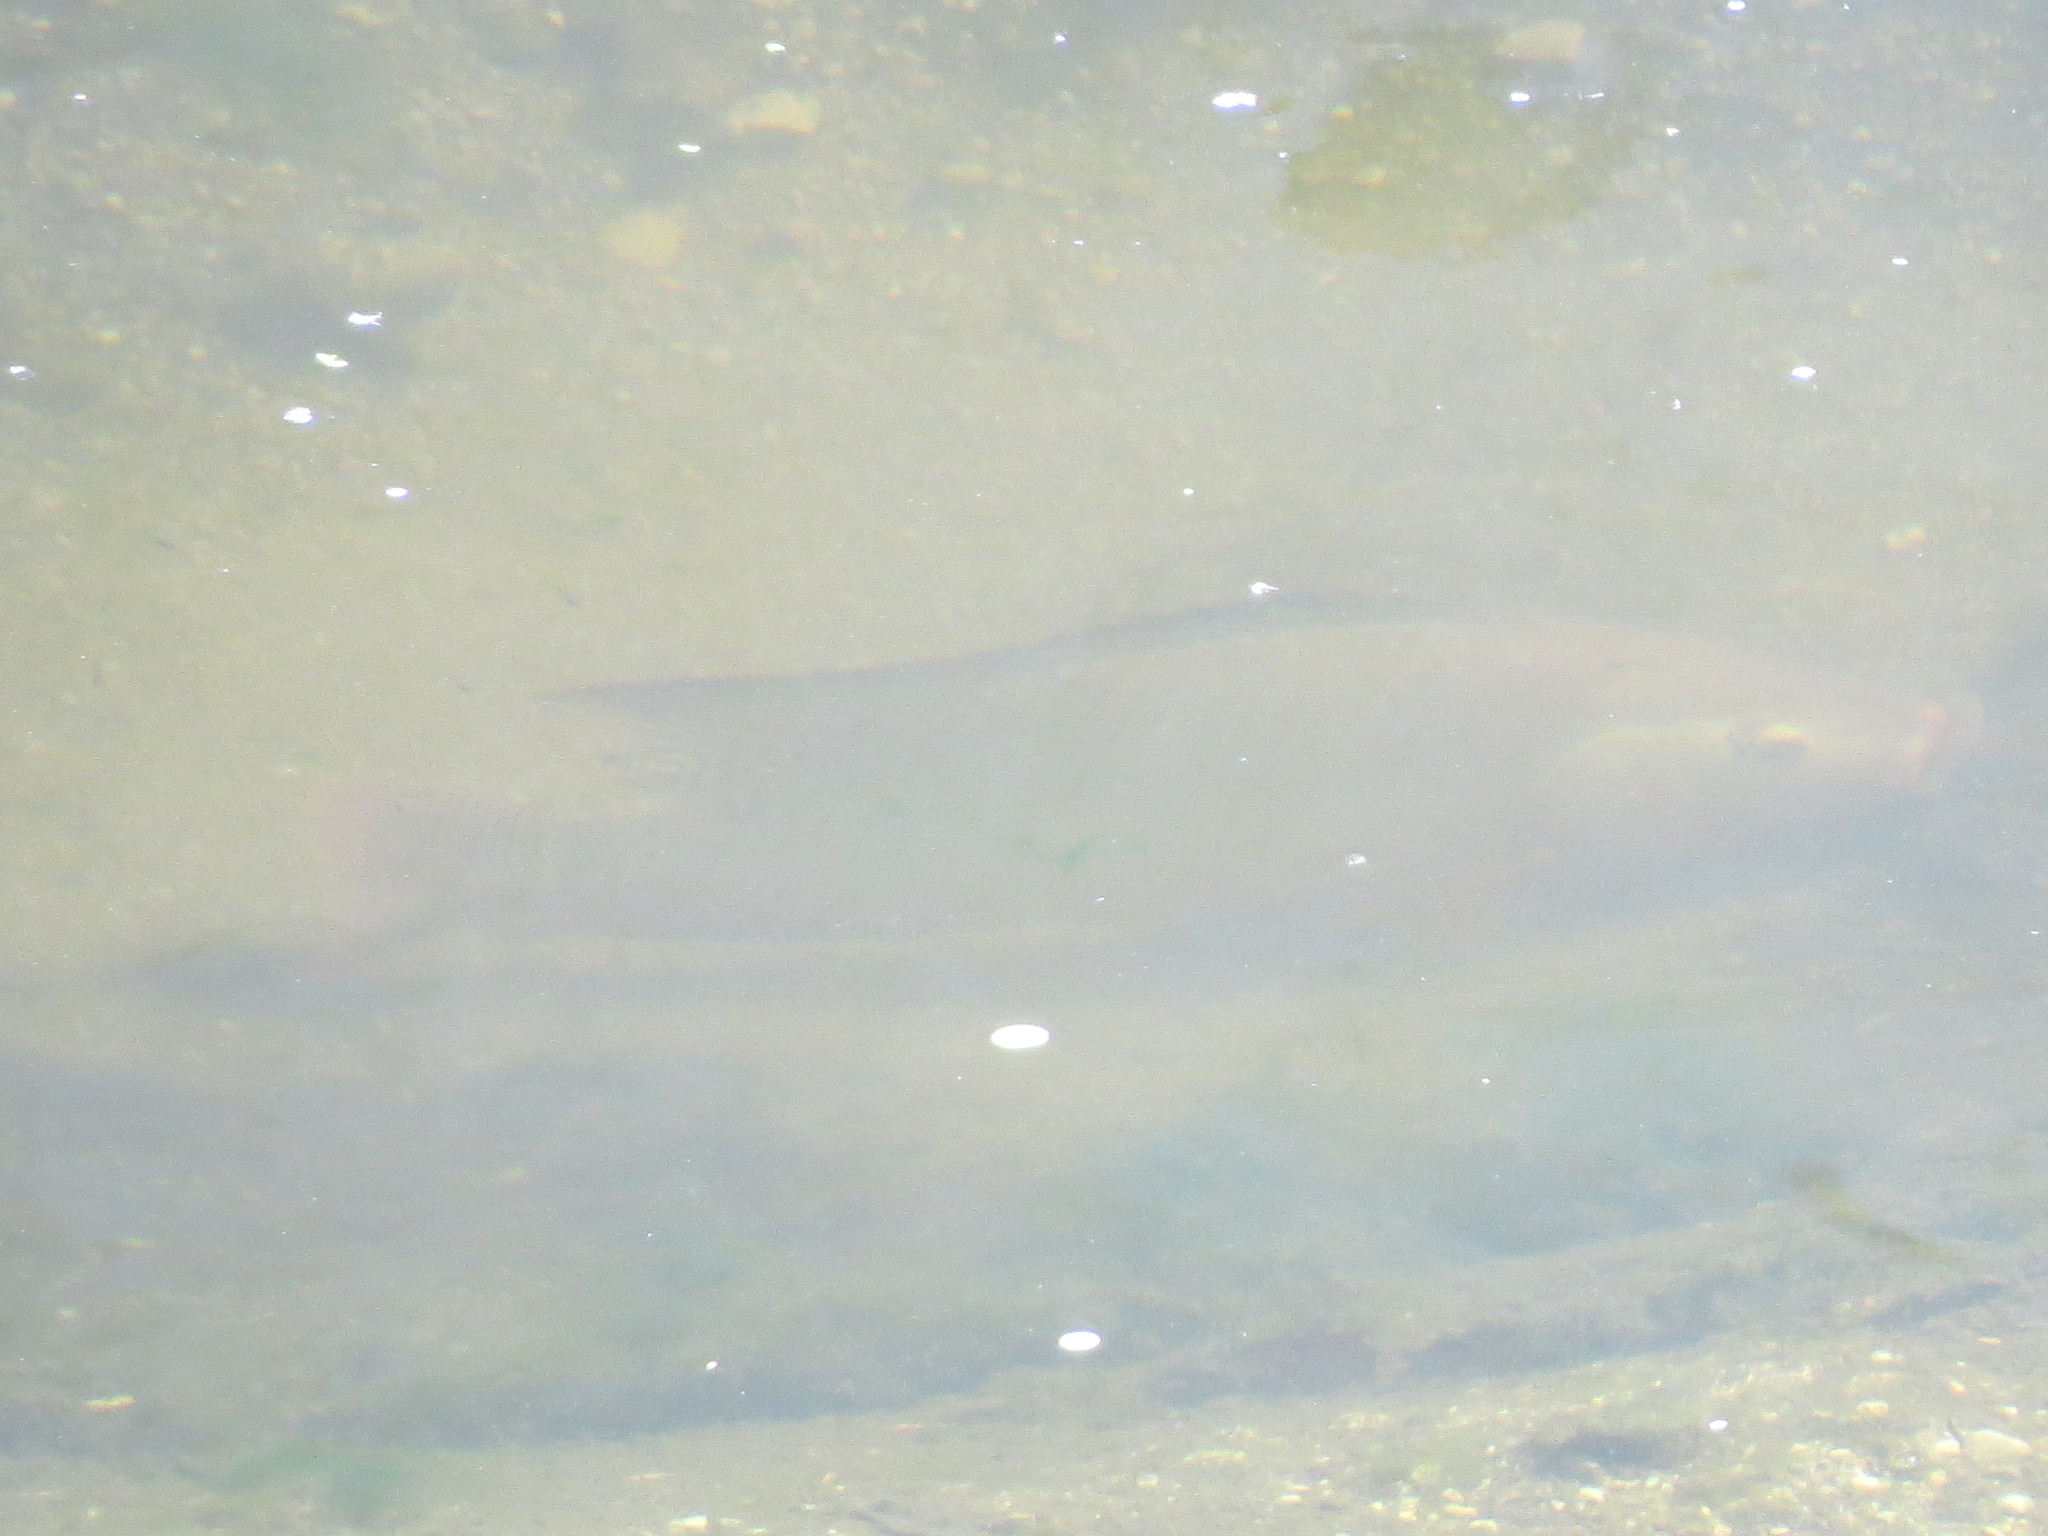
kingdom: Animalia
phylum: Chordata
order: Perciformes
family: Cichlidae
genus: Oreochromis
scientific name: Oreochromis niloticus
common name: Nile tilapia
